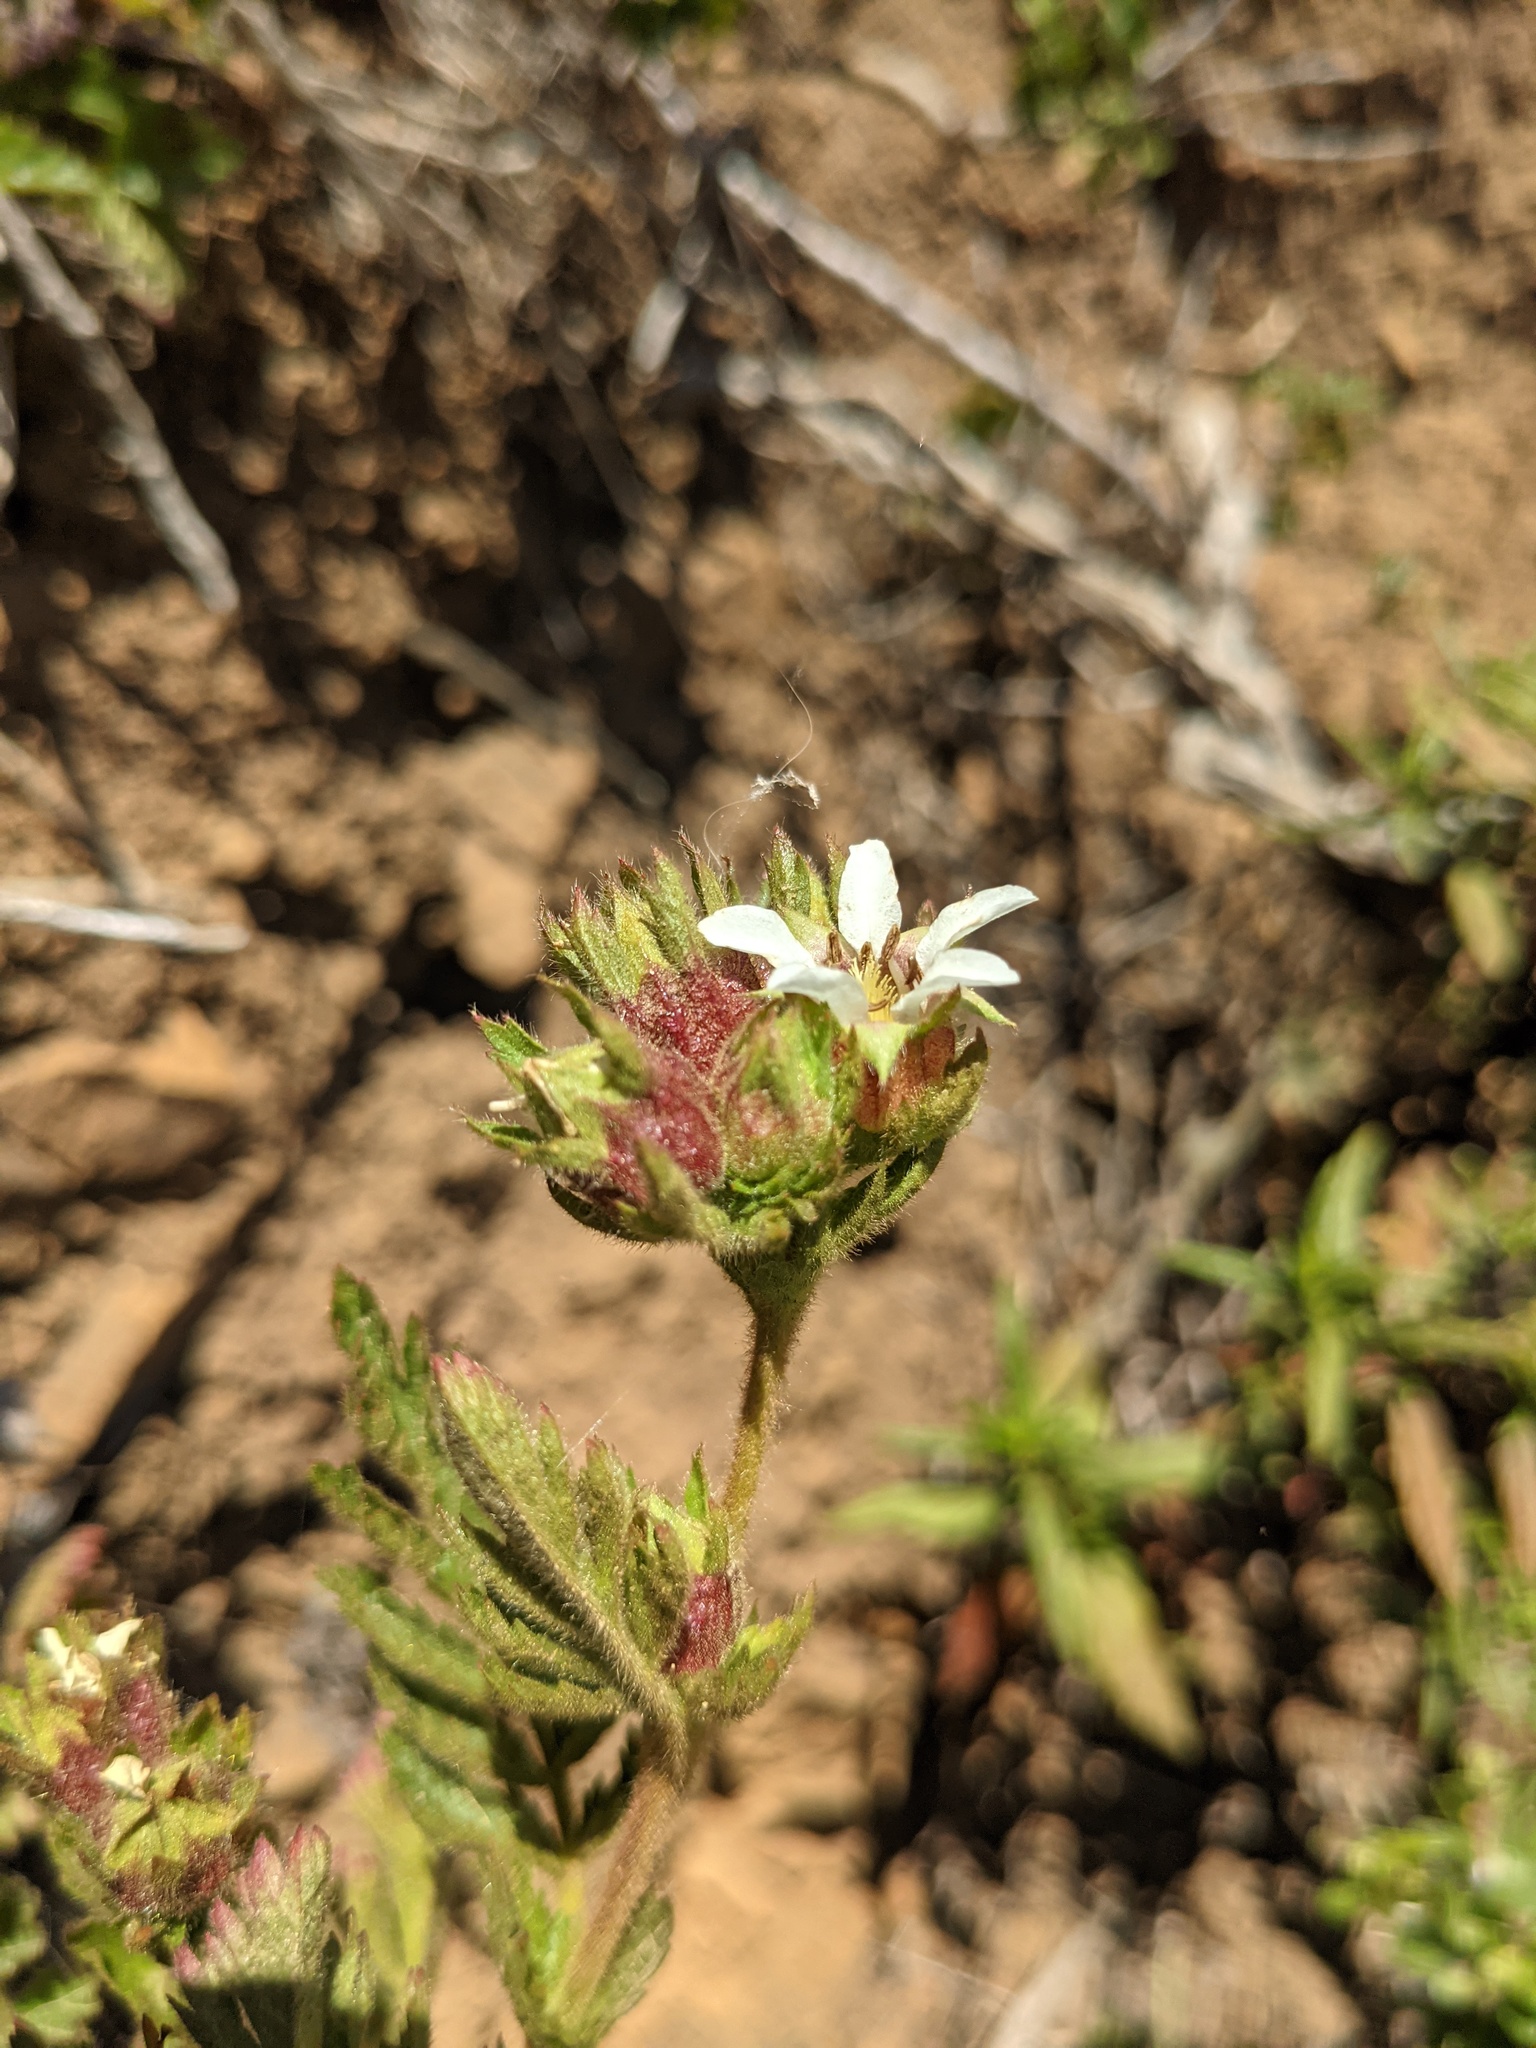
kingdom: Plantae
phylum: Tracheophyta
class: Magnoliopsida
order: Rosales
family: Rosaceae
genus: Potentilla
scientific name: Potentilla californica
